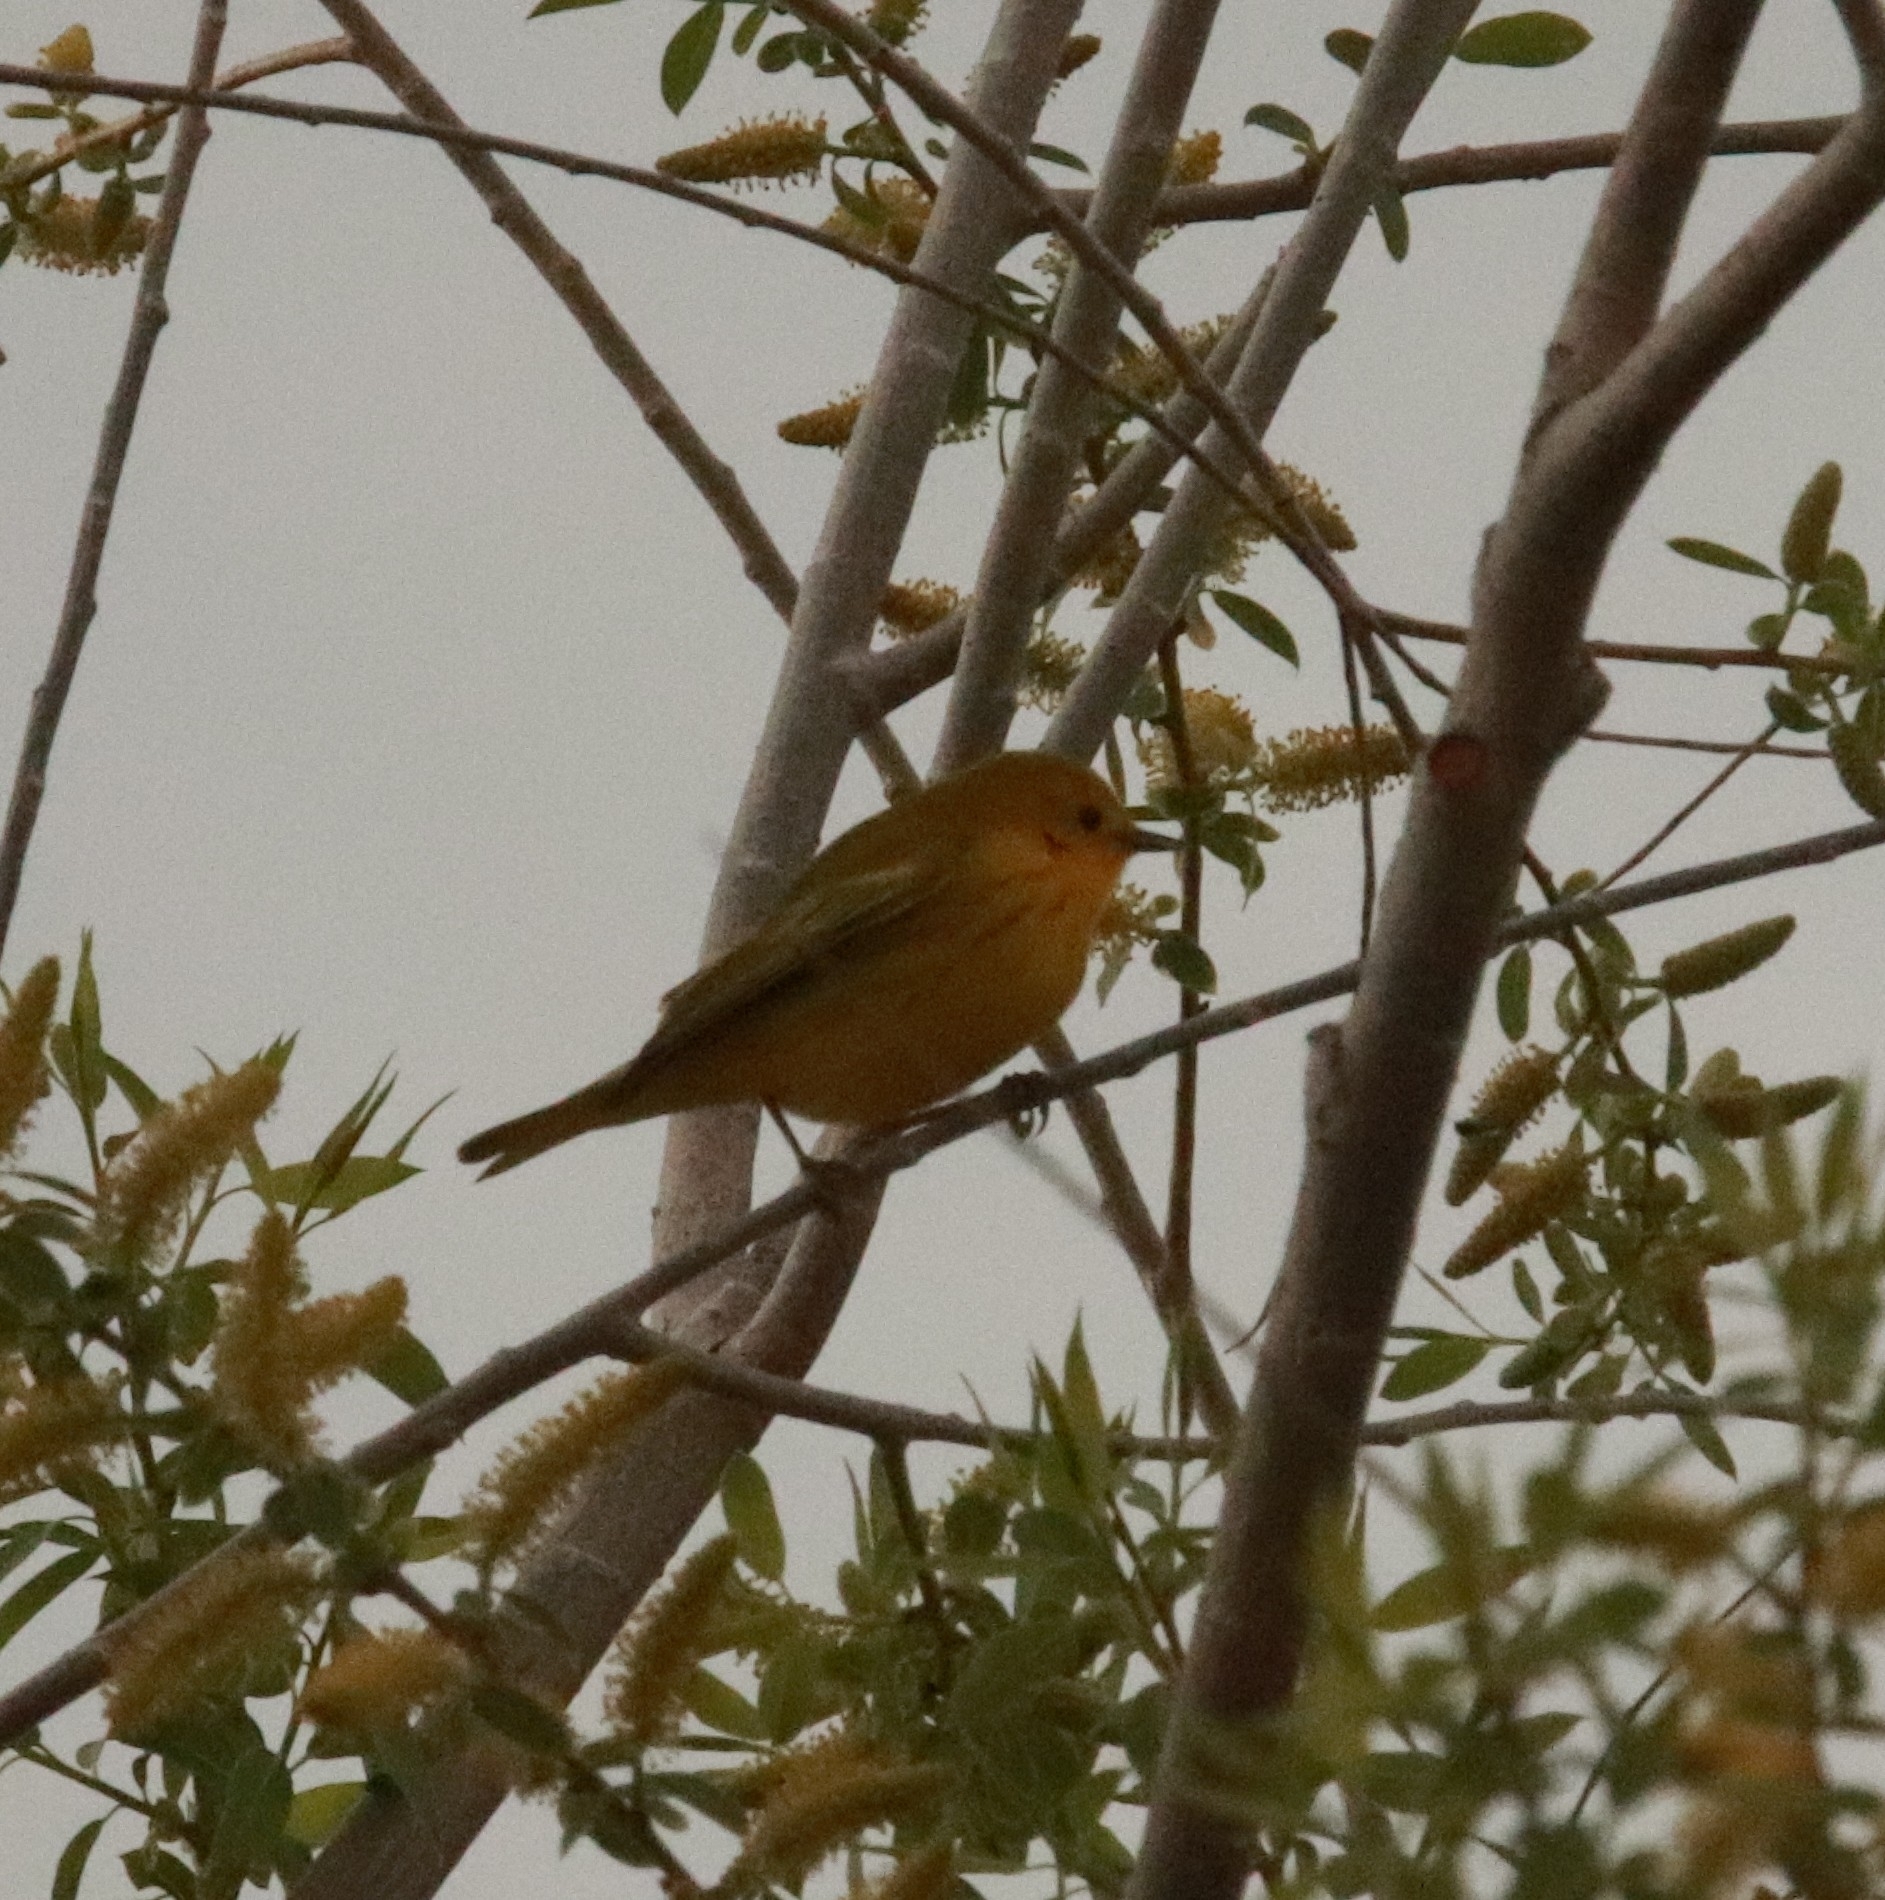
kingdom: Animalia
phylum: Chordata
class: Aves
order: Passeriformes
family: Parulidae
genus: Setophaga
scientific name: Setophaga petechia
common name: Yellow warbler
